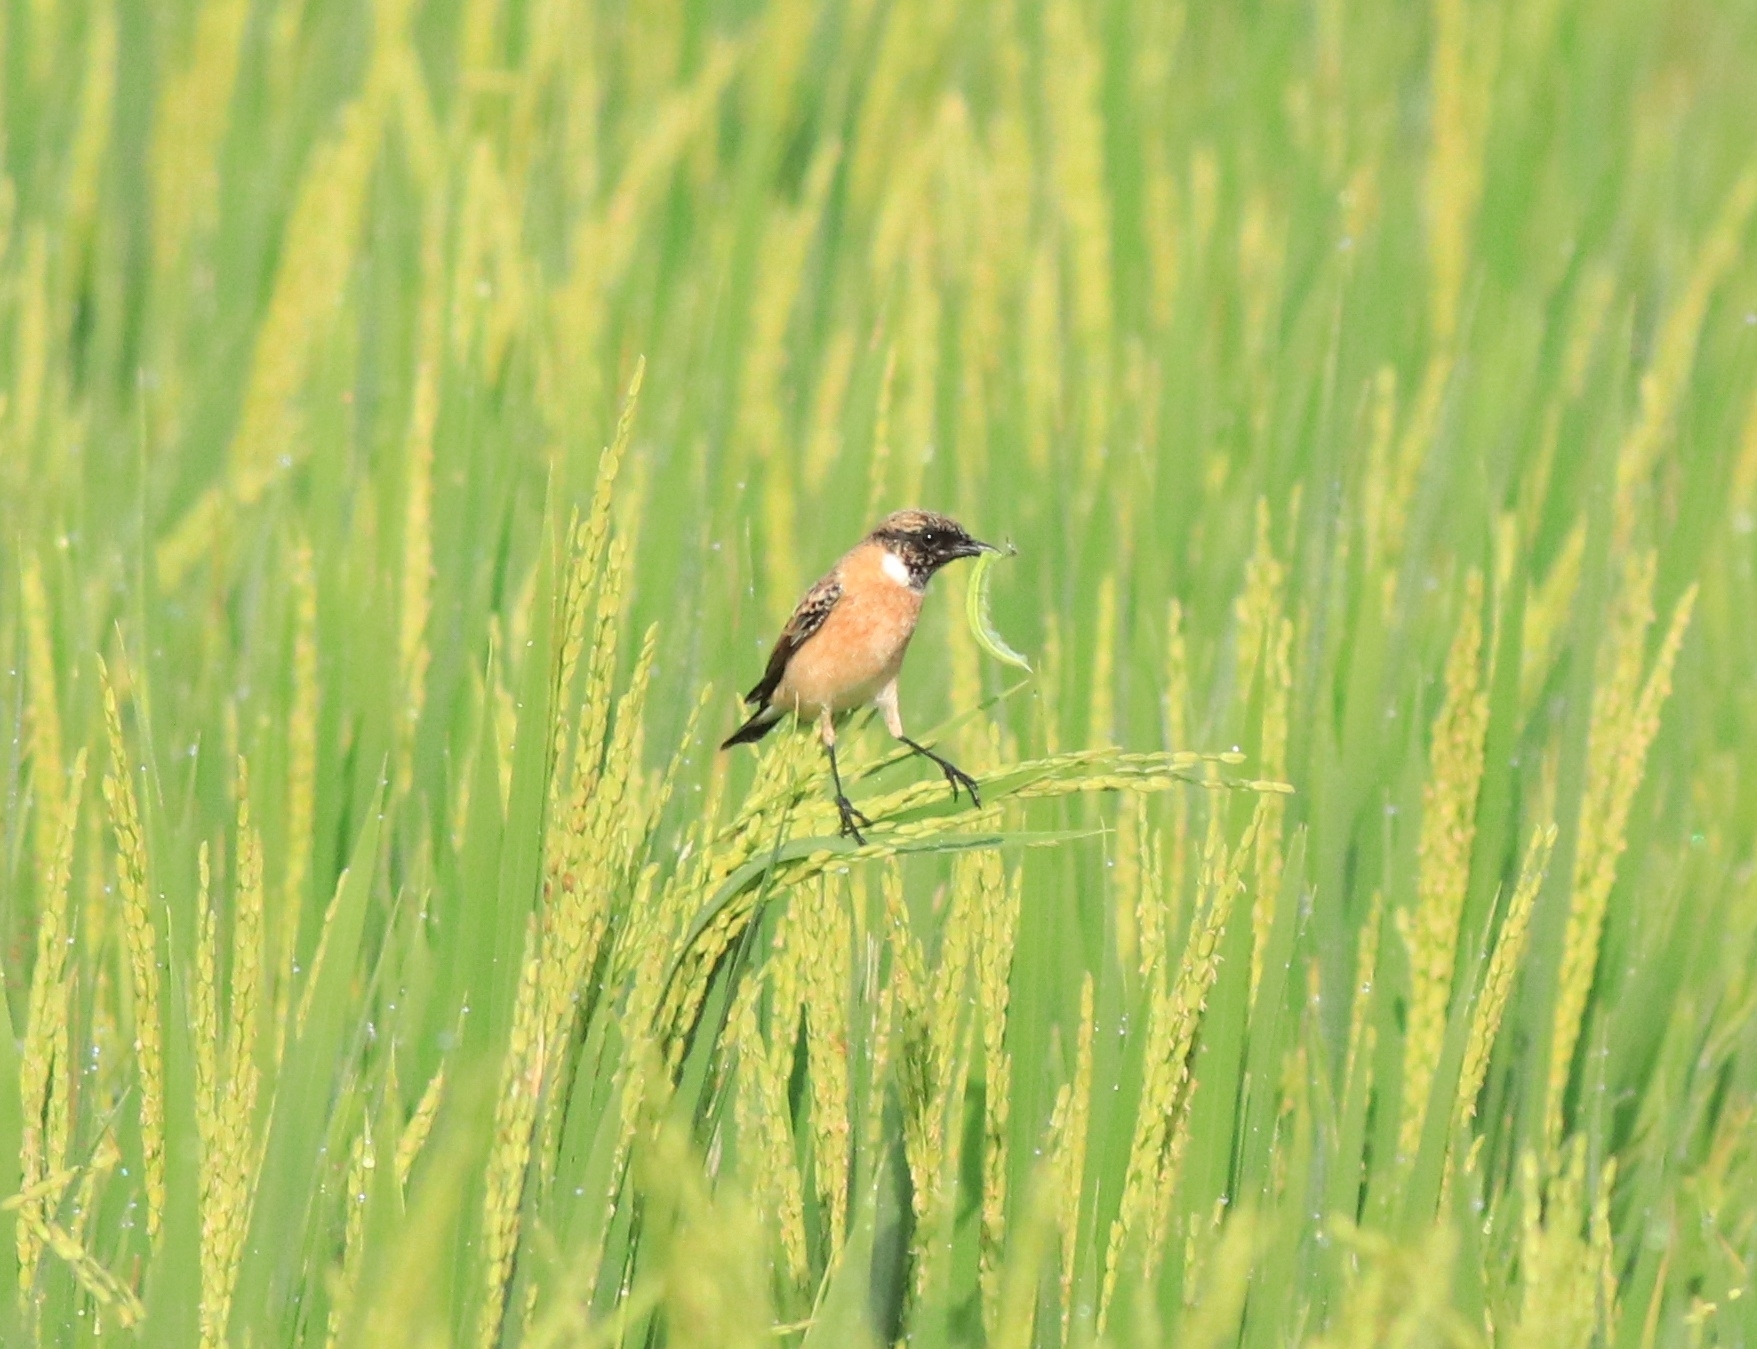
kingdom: Animalia
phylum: Chordata
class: Aves
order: Passeriformes
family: Muscicapidae
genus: Saxicola
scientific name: Saxicola maurus
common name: Siberian stonechat
